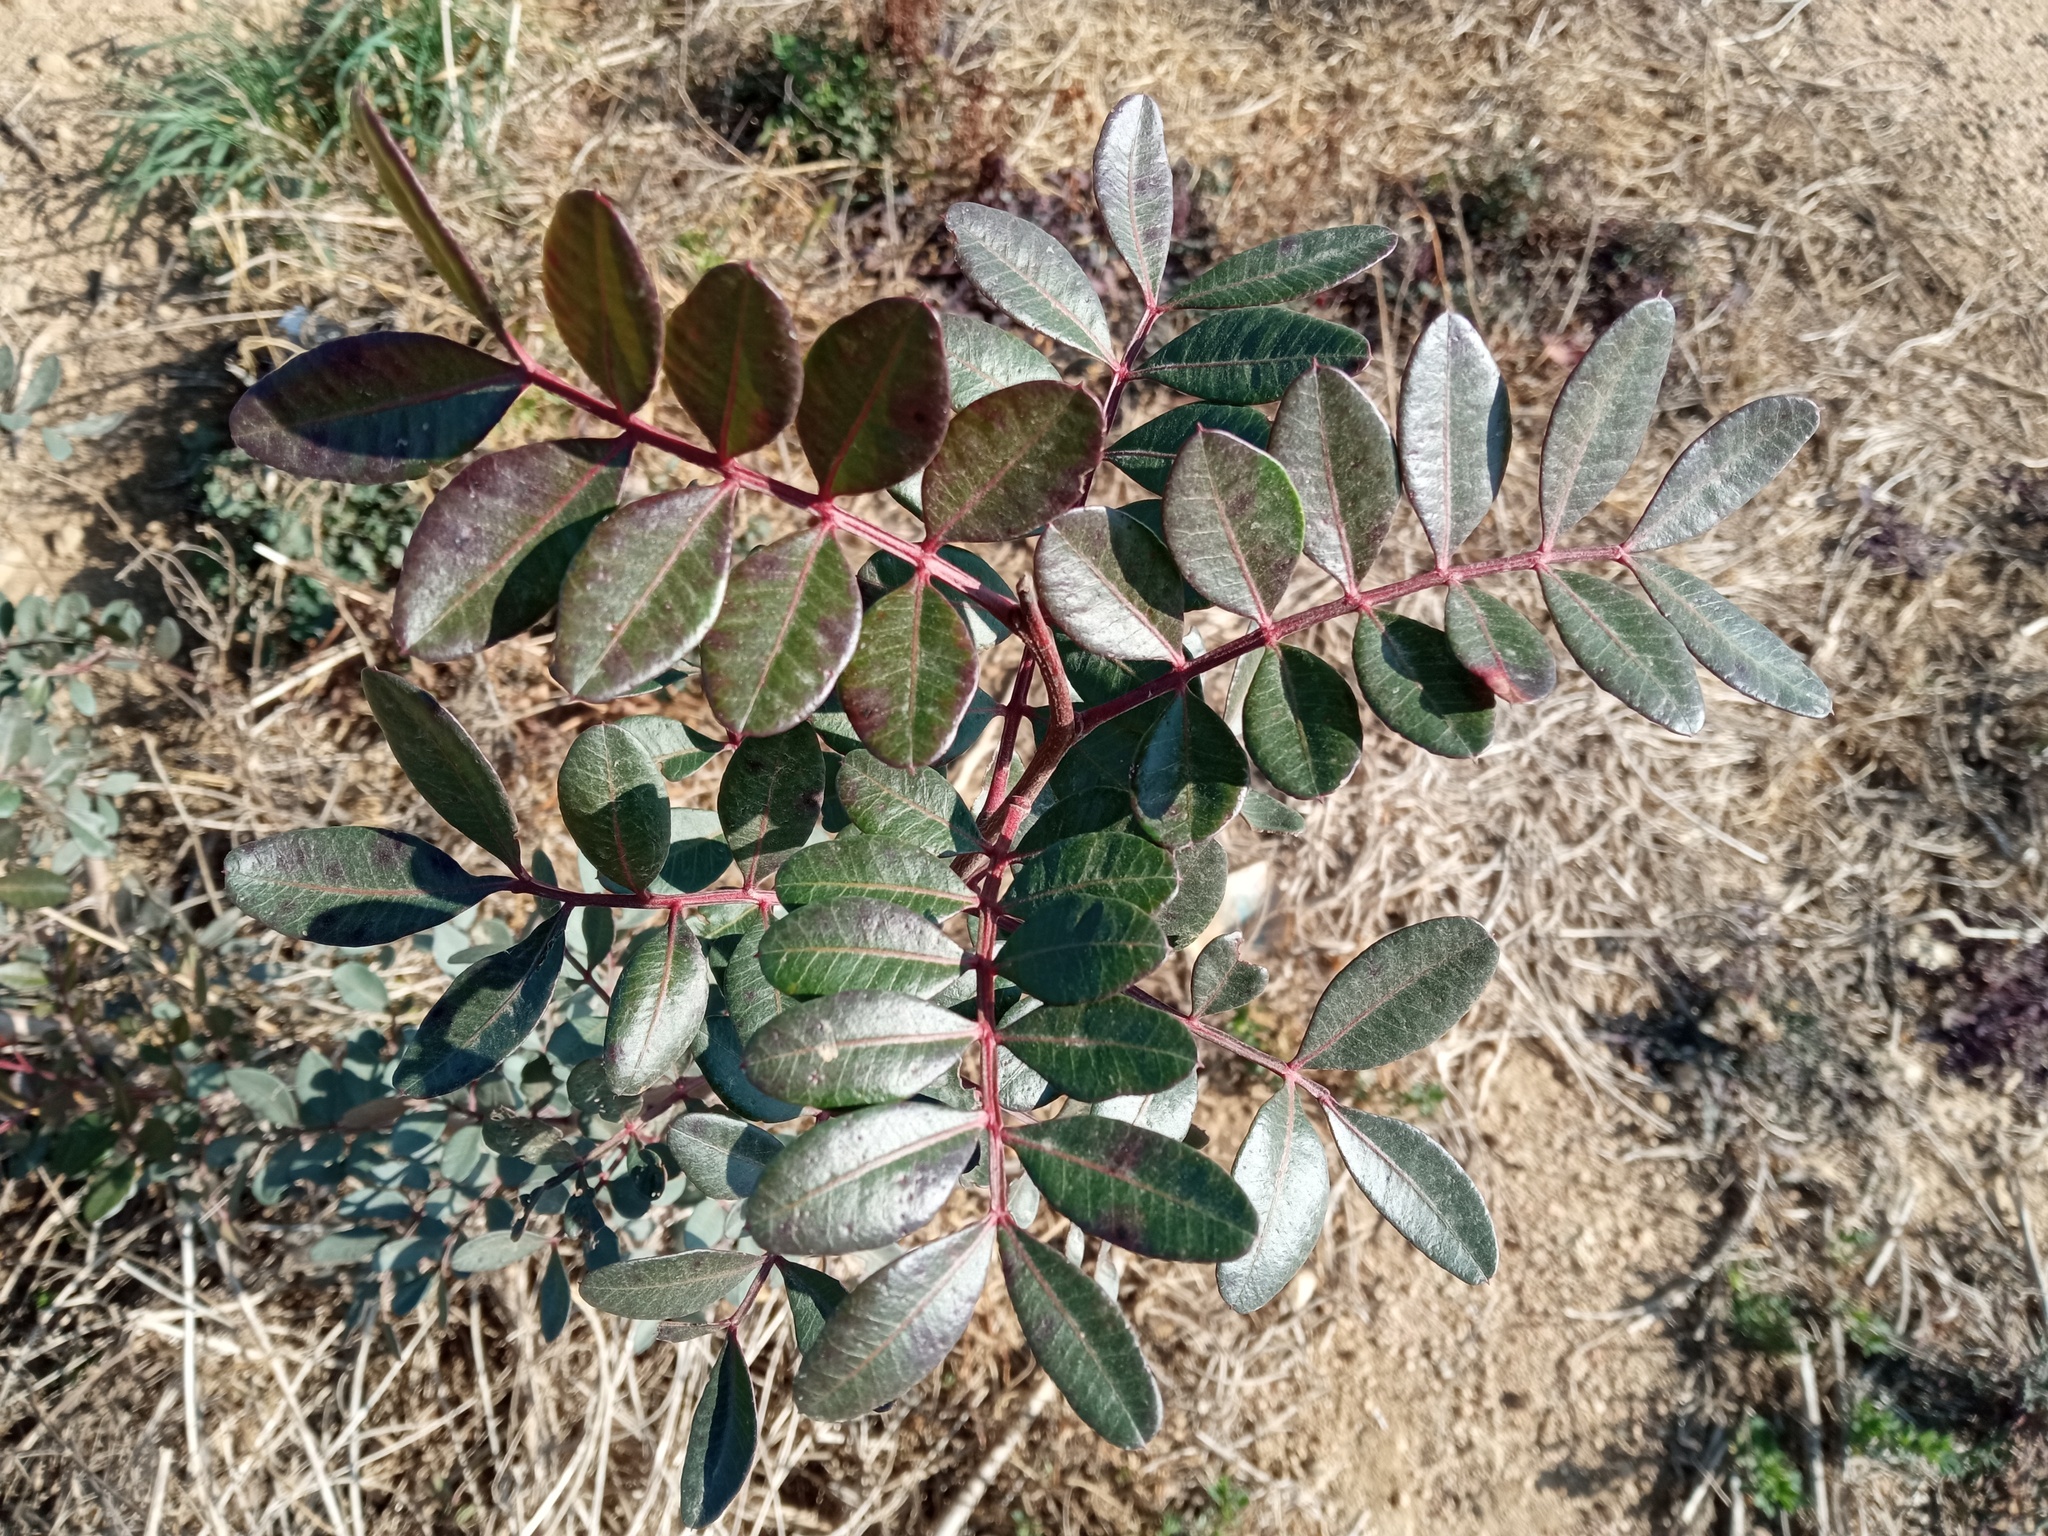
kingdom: Plantae
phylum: Tracheophyta
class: Magnoliopsida
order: Sapindales
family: Anacardiaceae
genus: Pistacia
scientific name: Pistacia lentiscus
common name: Lentisk
